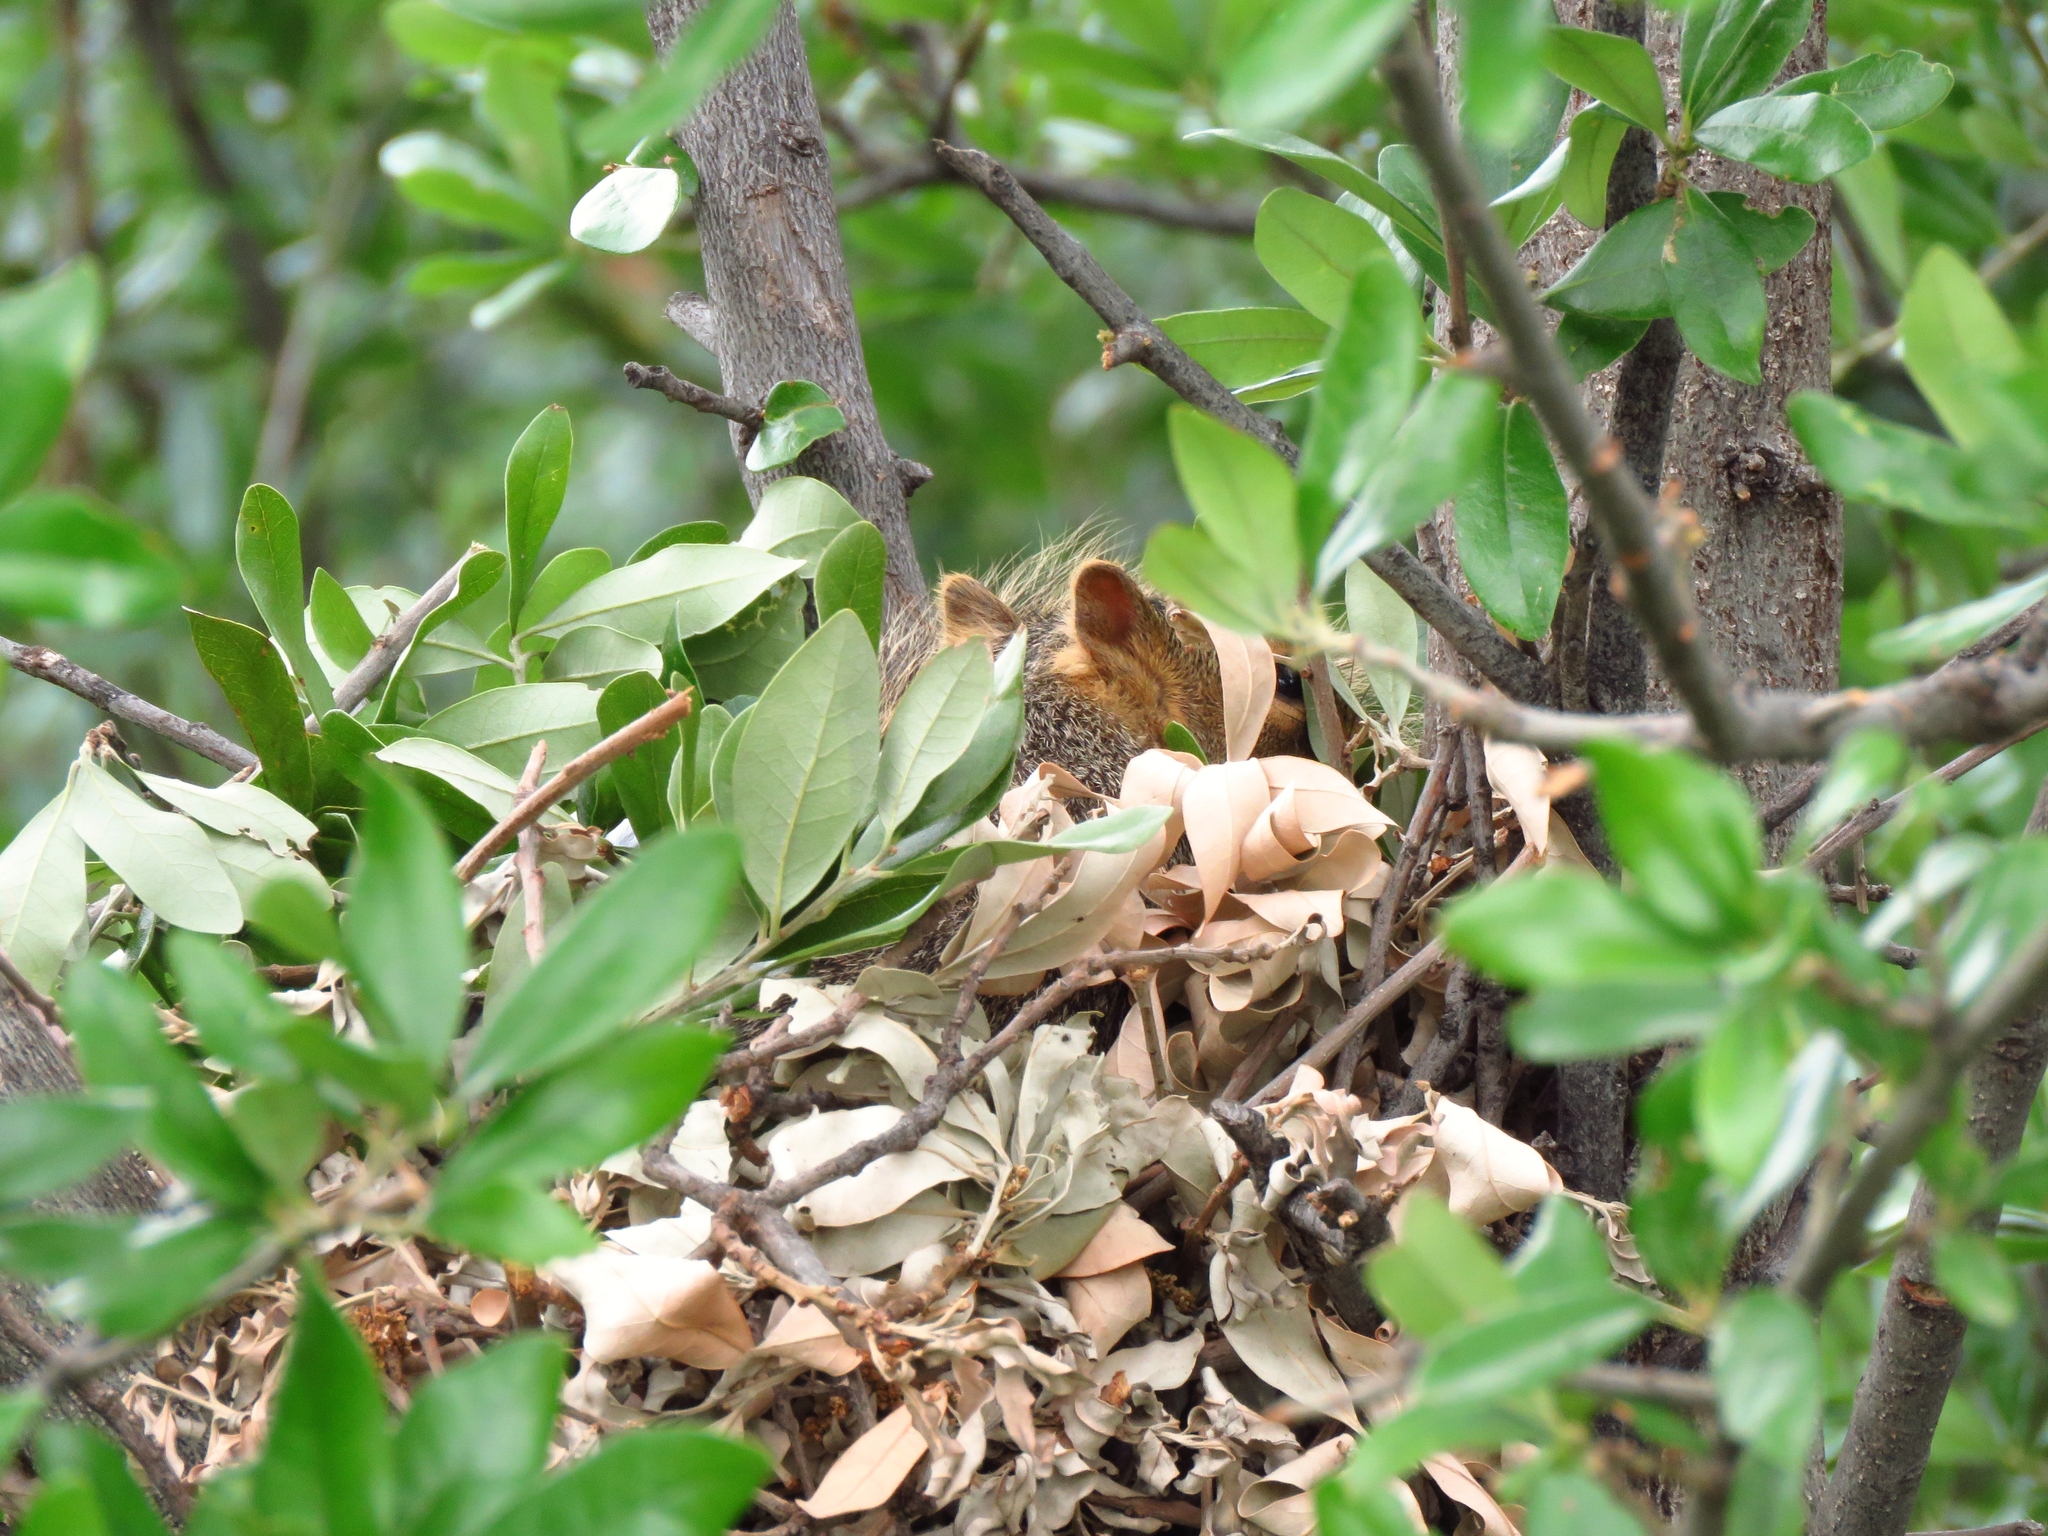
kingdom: Animalia
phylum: Chordata
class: Mammalia
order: Rodentia
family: Sciuridae
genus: Sciurus
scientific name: Sciurus niger
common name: Fox squirrel
